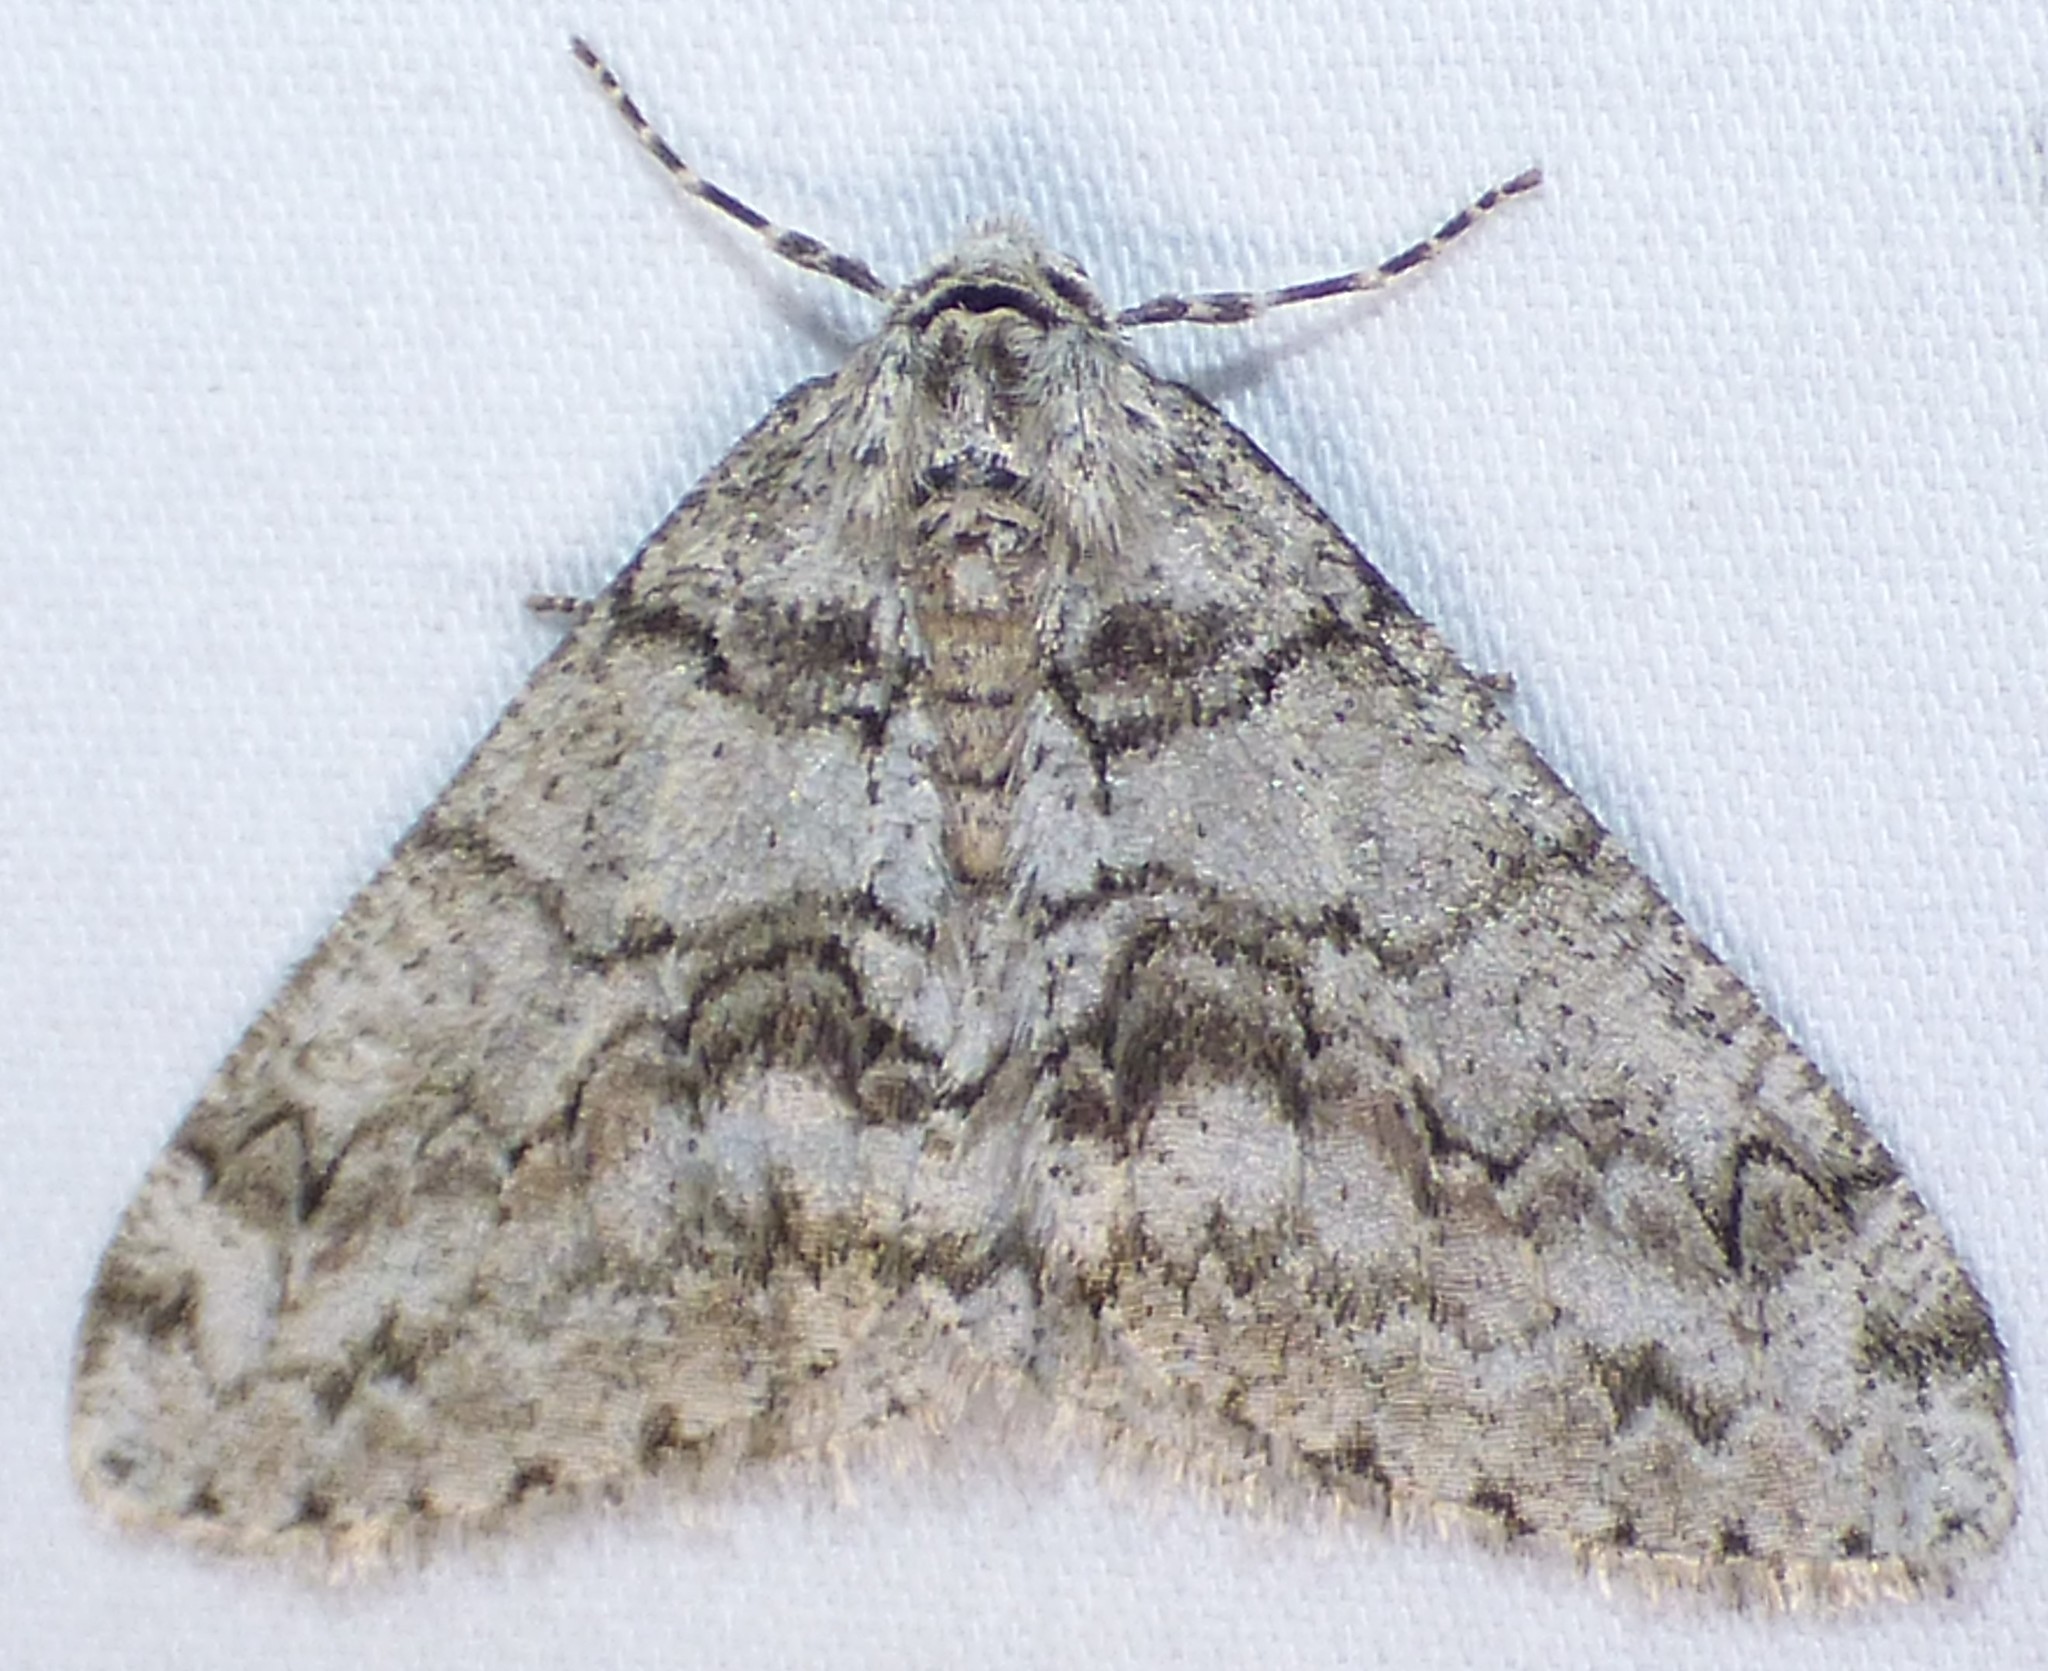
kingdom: Animalia
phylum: Arthropoda
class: Insecta
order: Lepidoptera
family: Geometridae
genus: Phigalia
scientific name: Phigalia denticulata
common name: Toothed phigalia
